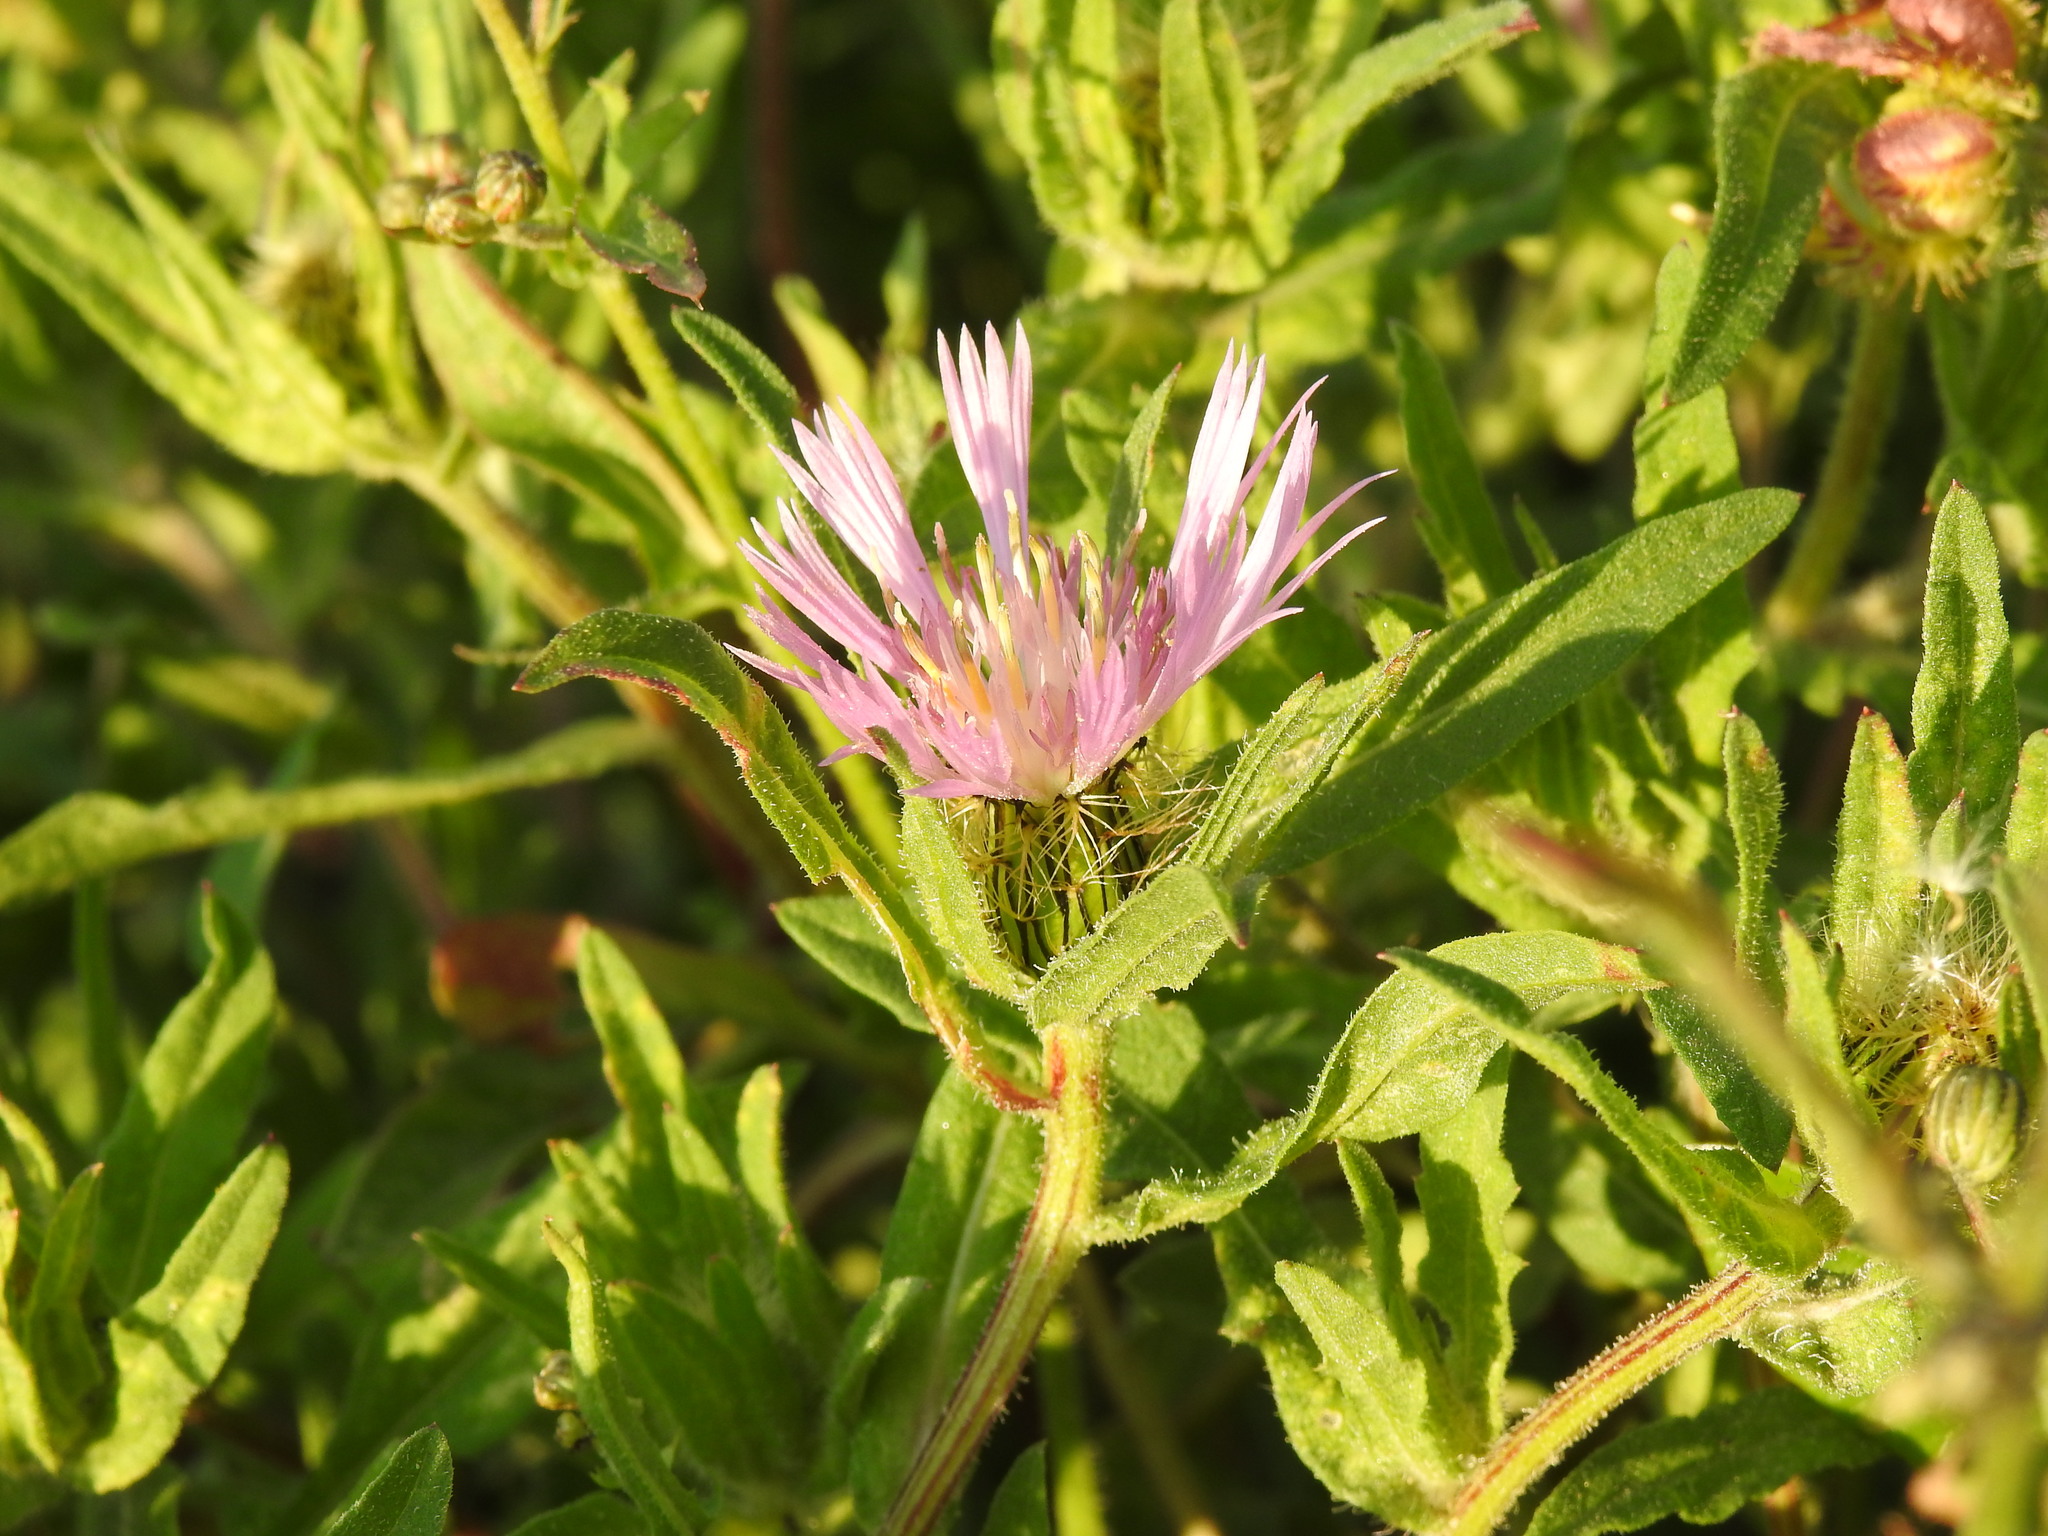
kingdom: Plantae
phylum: Tracheophyta
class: Magnoliopsida
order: Asterales
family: Asteraceae
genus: Centaurea
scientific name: Centaurea pullata
